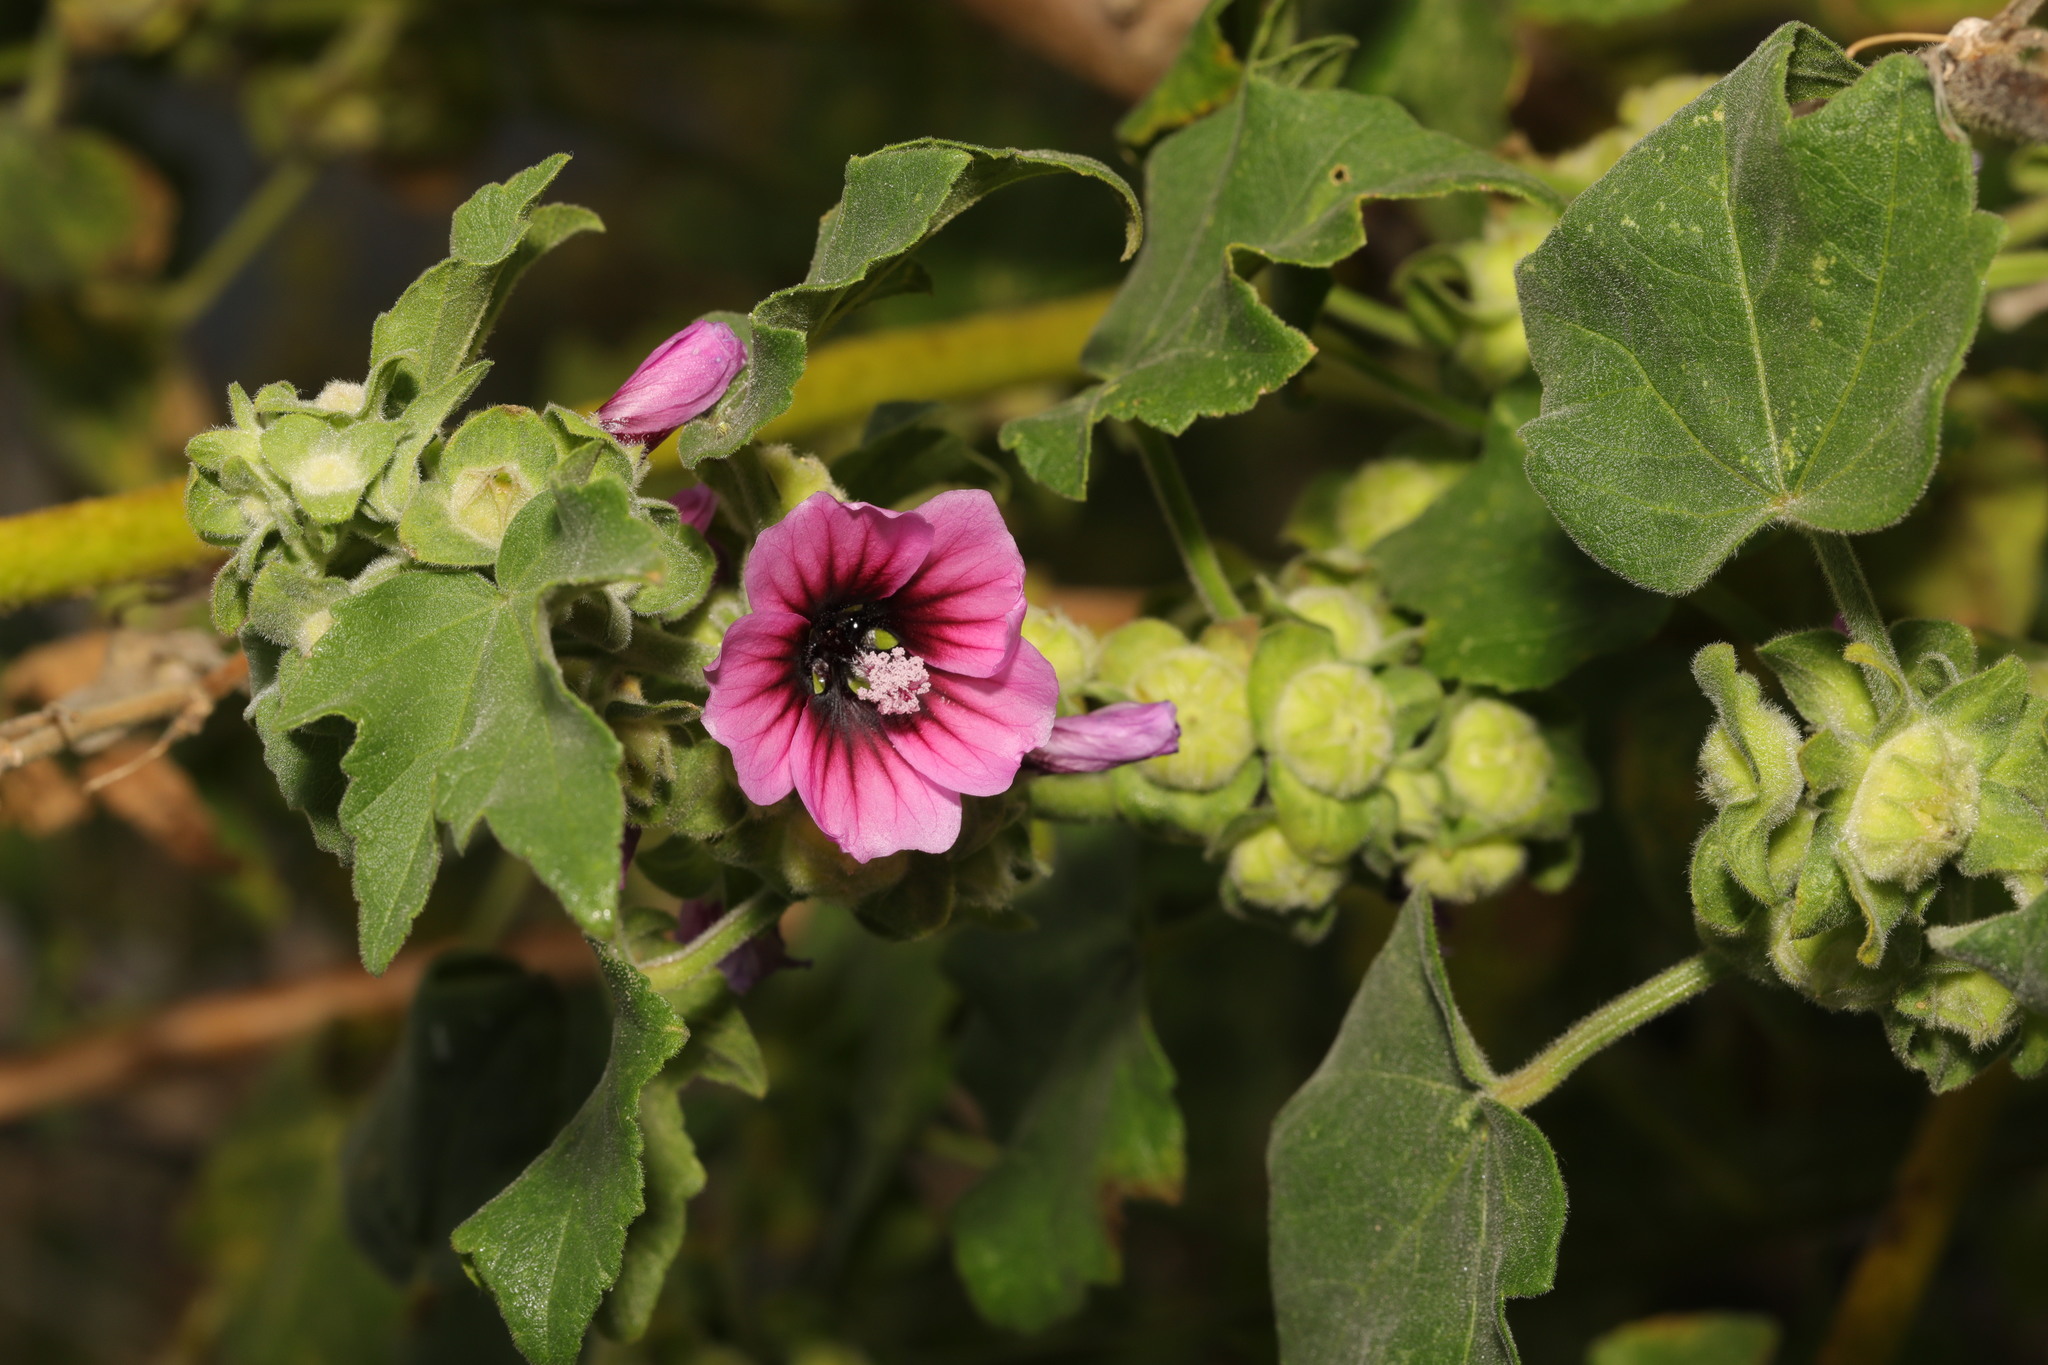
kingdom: Plantae
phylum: Tracheophyta
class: Magnoliopsida
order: Malvales
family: Malvaceae
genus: Malva
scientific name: Malva arborea
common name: Tree mallow
